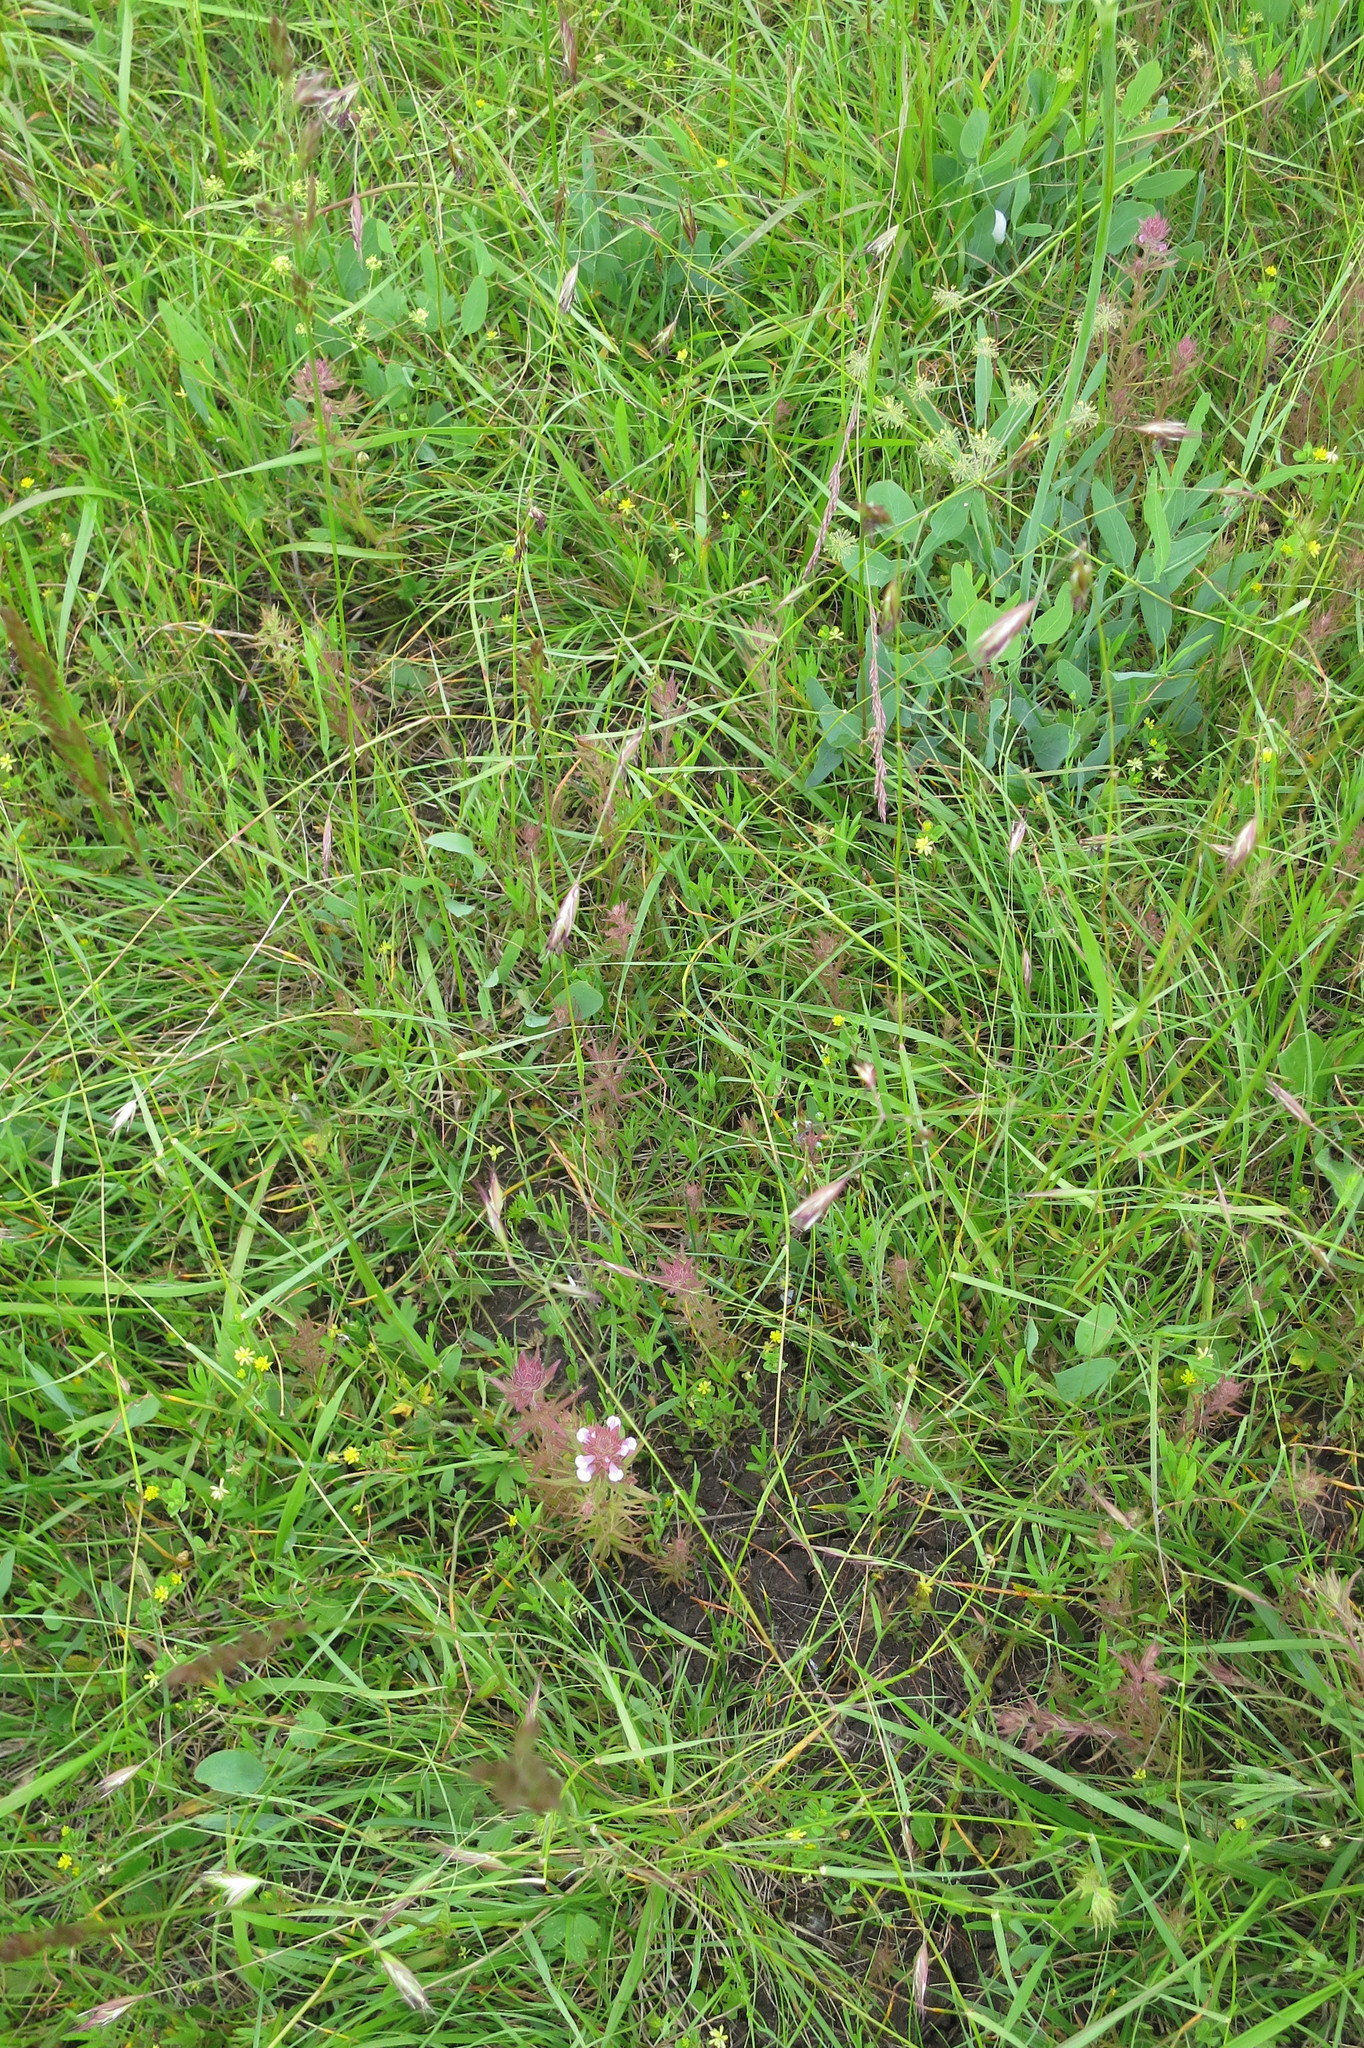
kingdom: Plantae
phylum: Tracheophyta
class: Magnoliopsida
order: Lamiales
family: Orobanchaceae
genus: Orthocarpus
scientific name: Orthocarpus bracteosus
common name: Rosy owl's-clover
